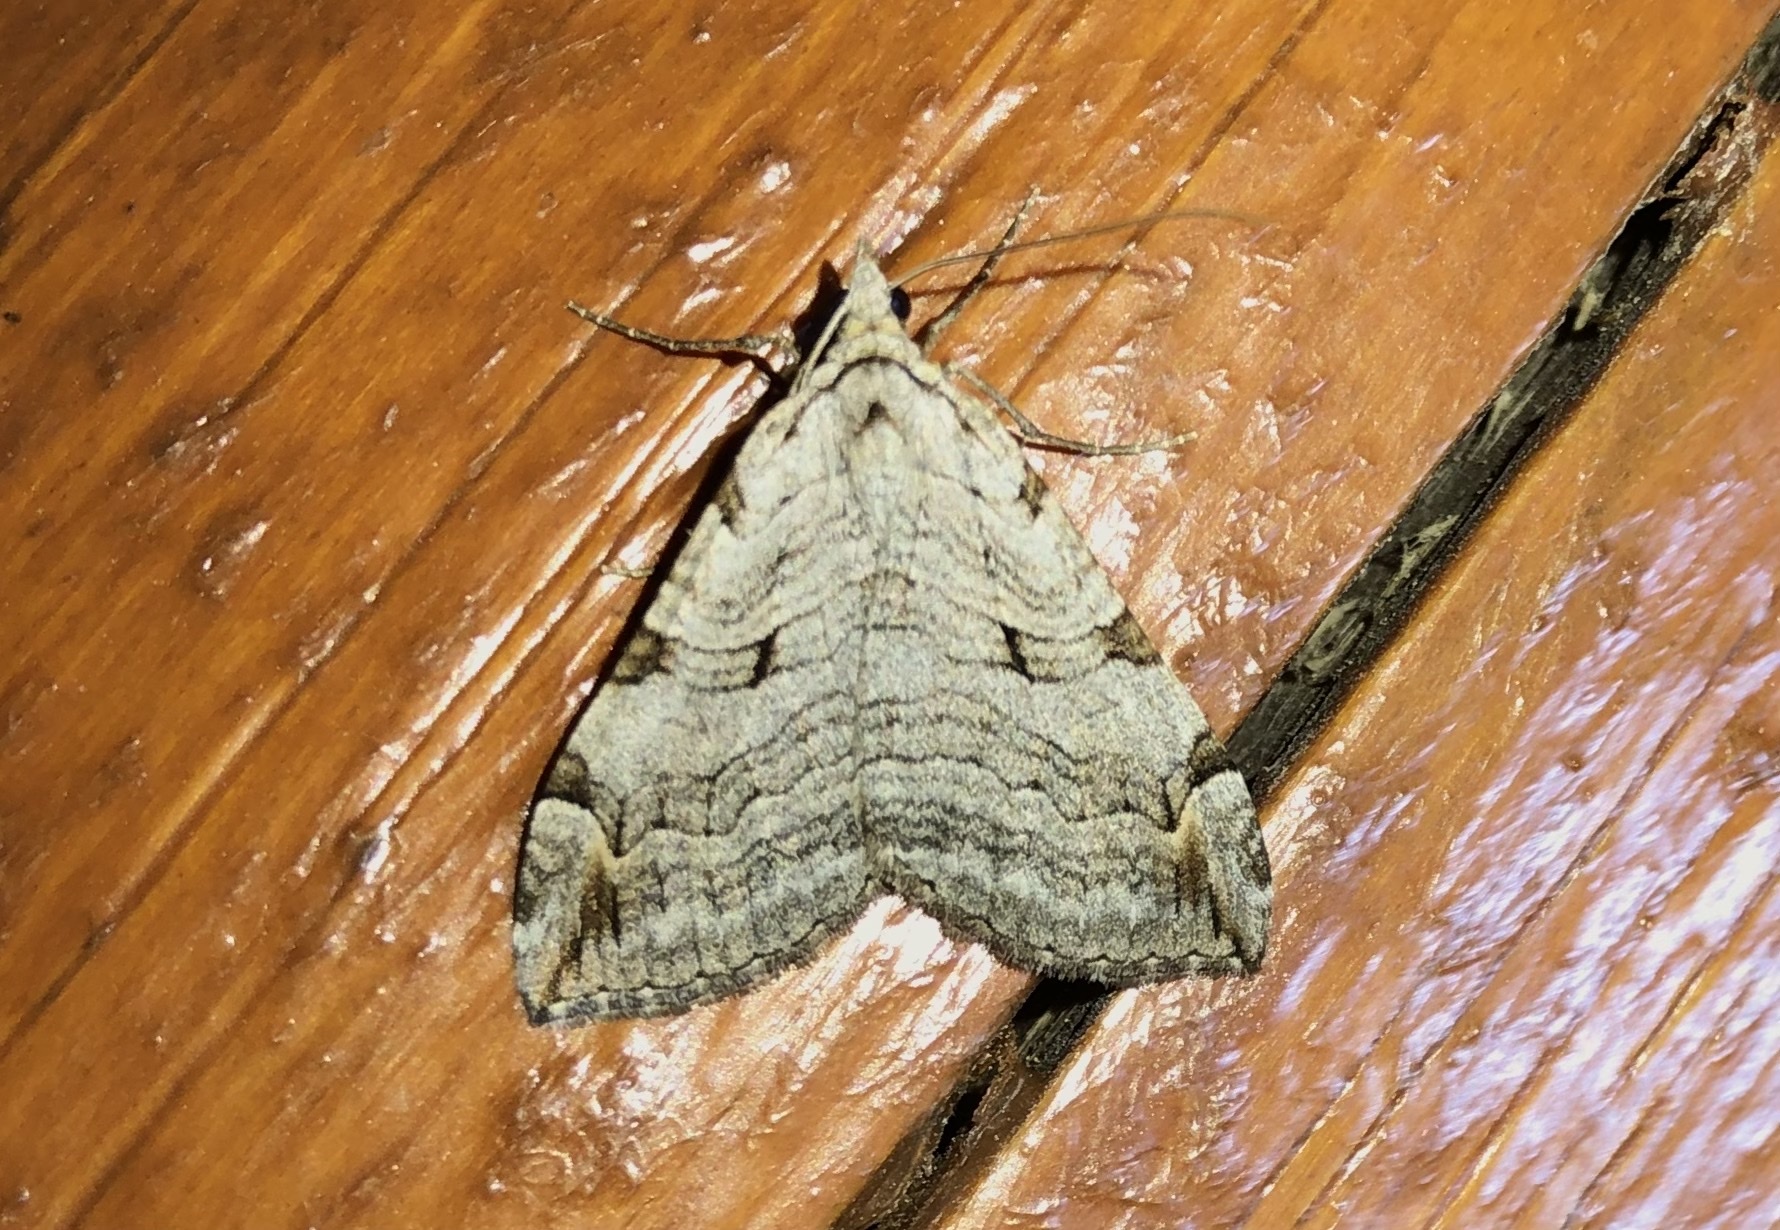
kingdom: Animalia
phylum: Arthropoda
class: Insecta
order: Lepidoptera
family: Geometridae
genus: Aplocera
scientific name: Aplocera plagiata
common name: Treble-bar
